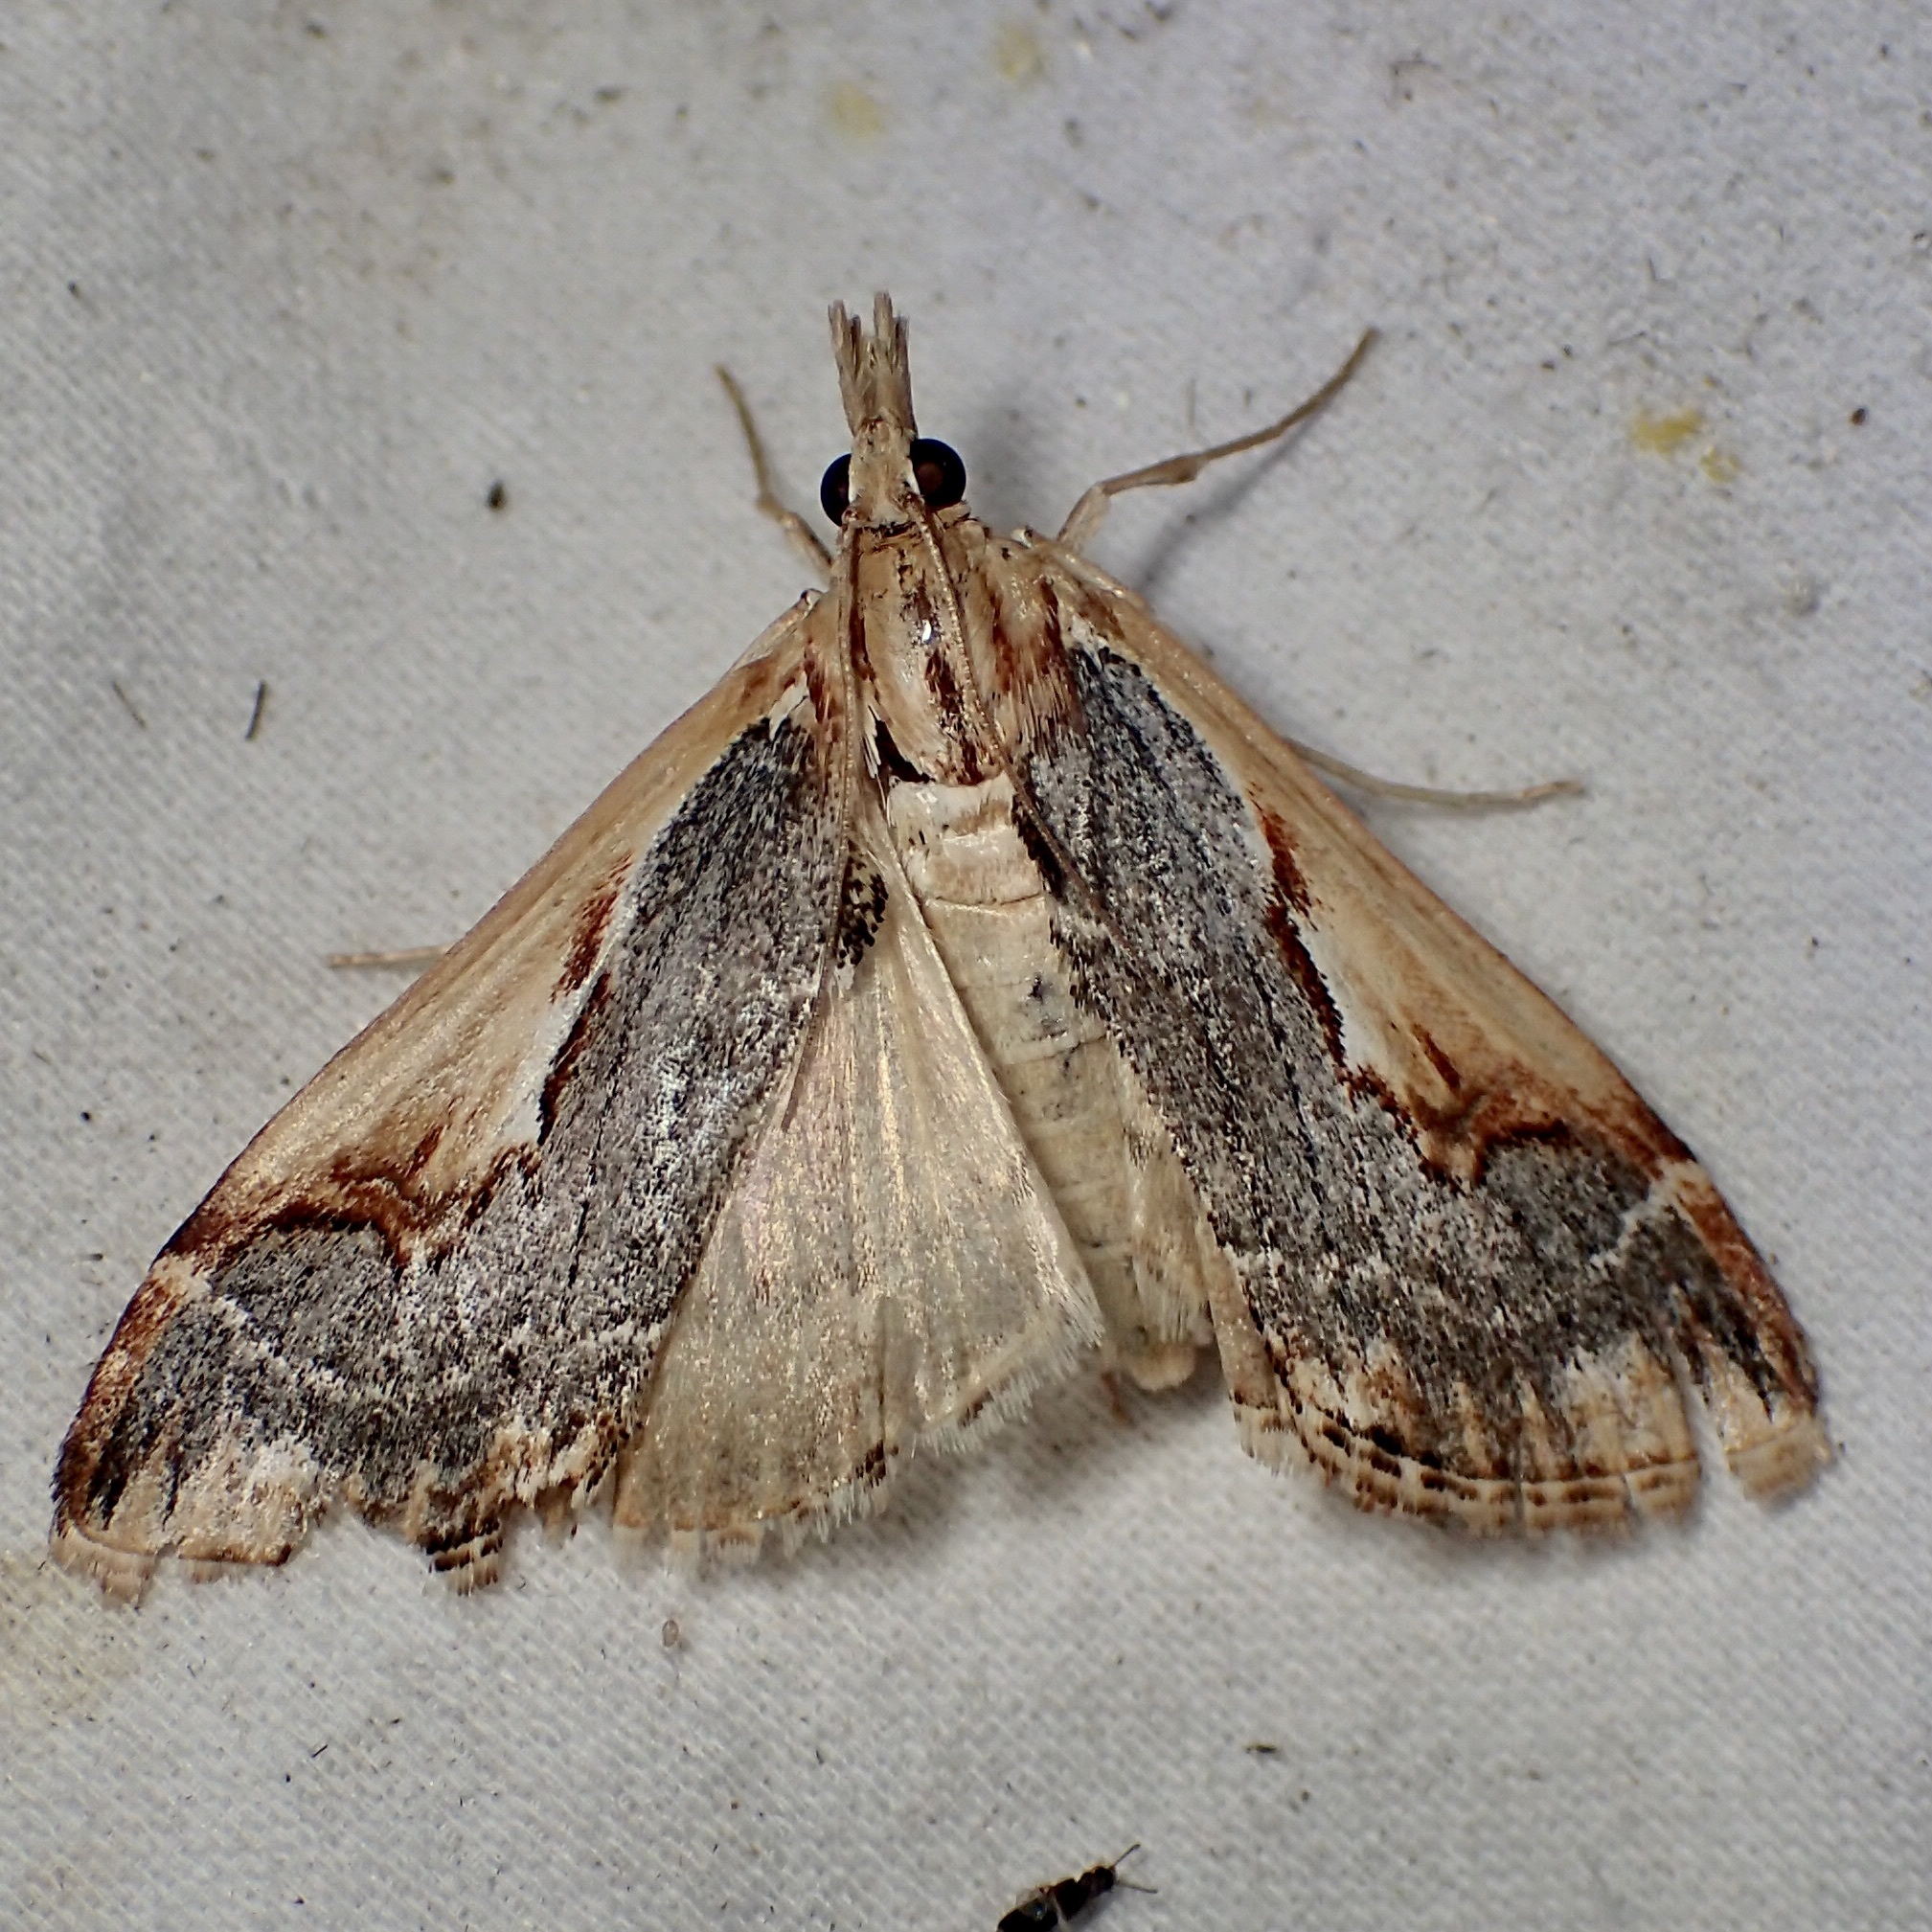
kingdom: Animalia
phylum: Arthropoda
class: Insecta
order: Lepidoptera
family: Crambidae
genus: Loxostege
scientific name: Loxostege albiceralis
